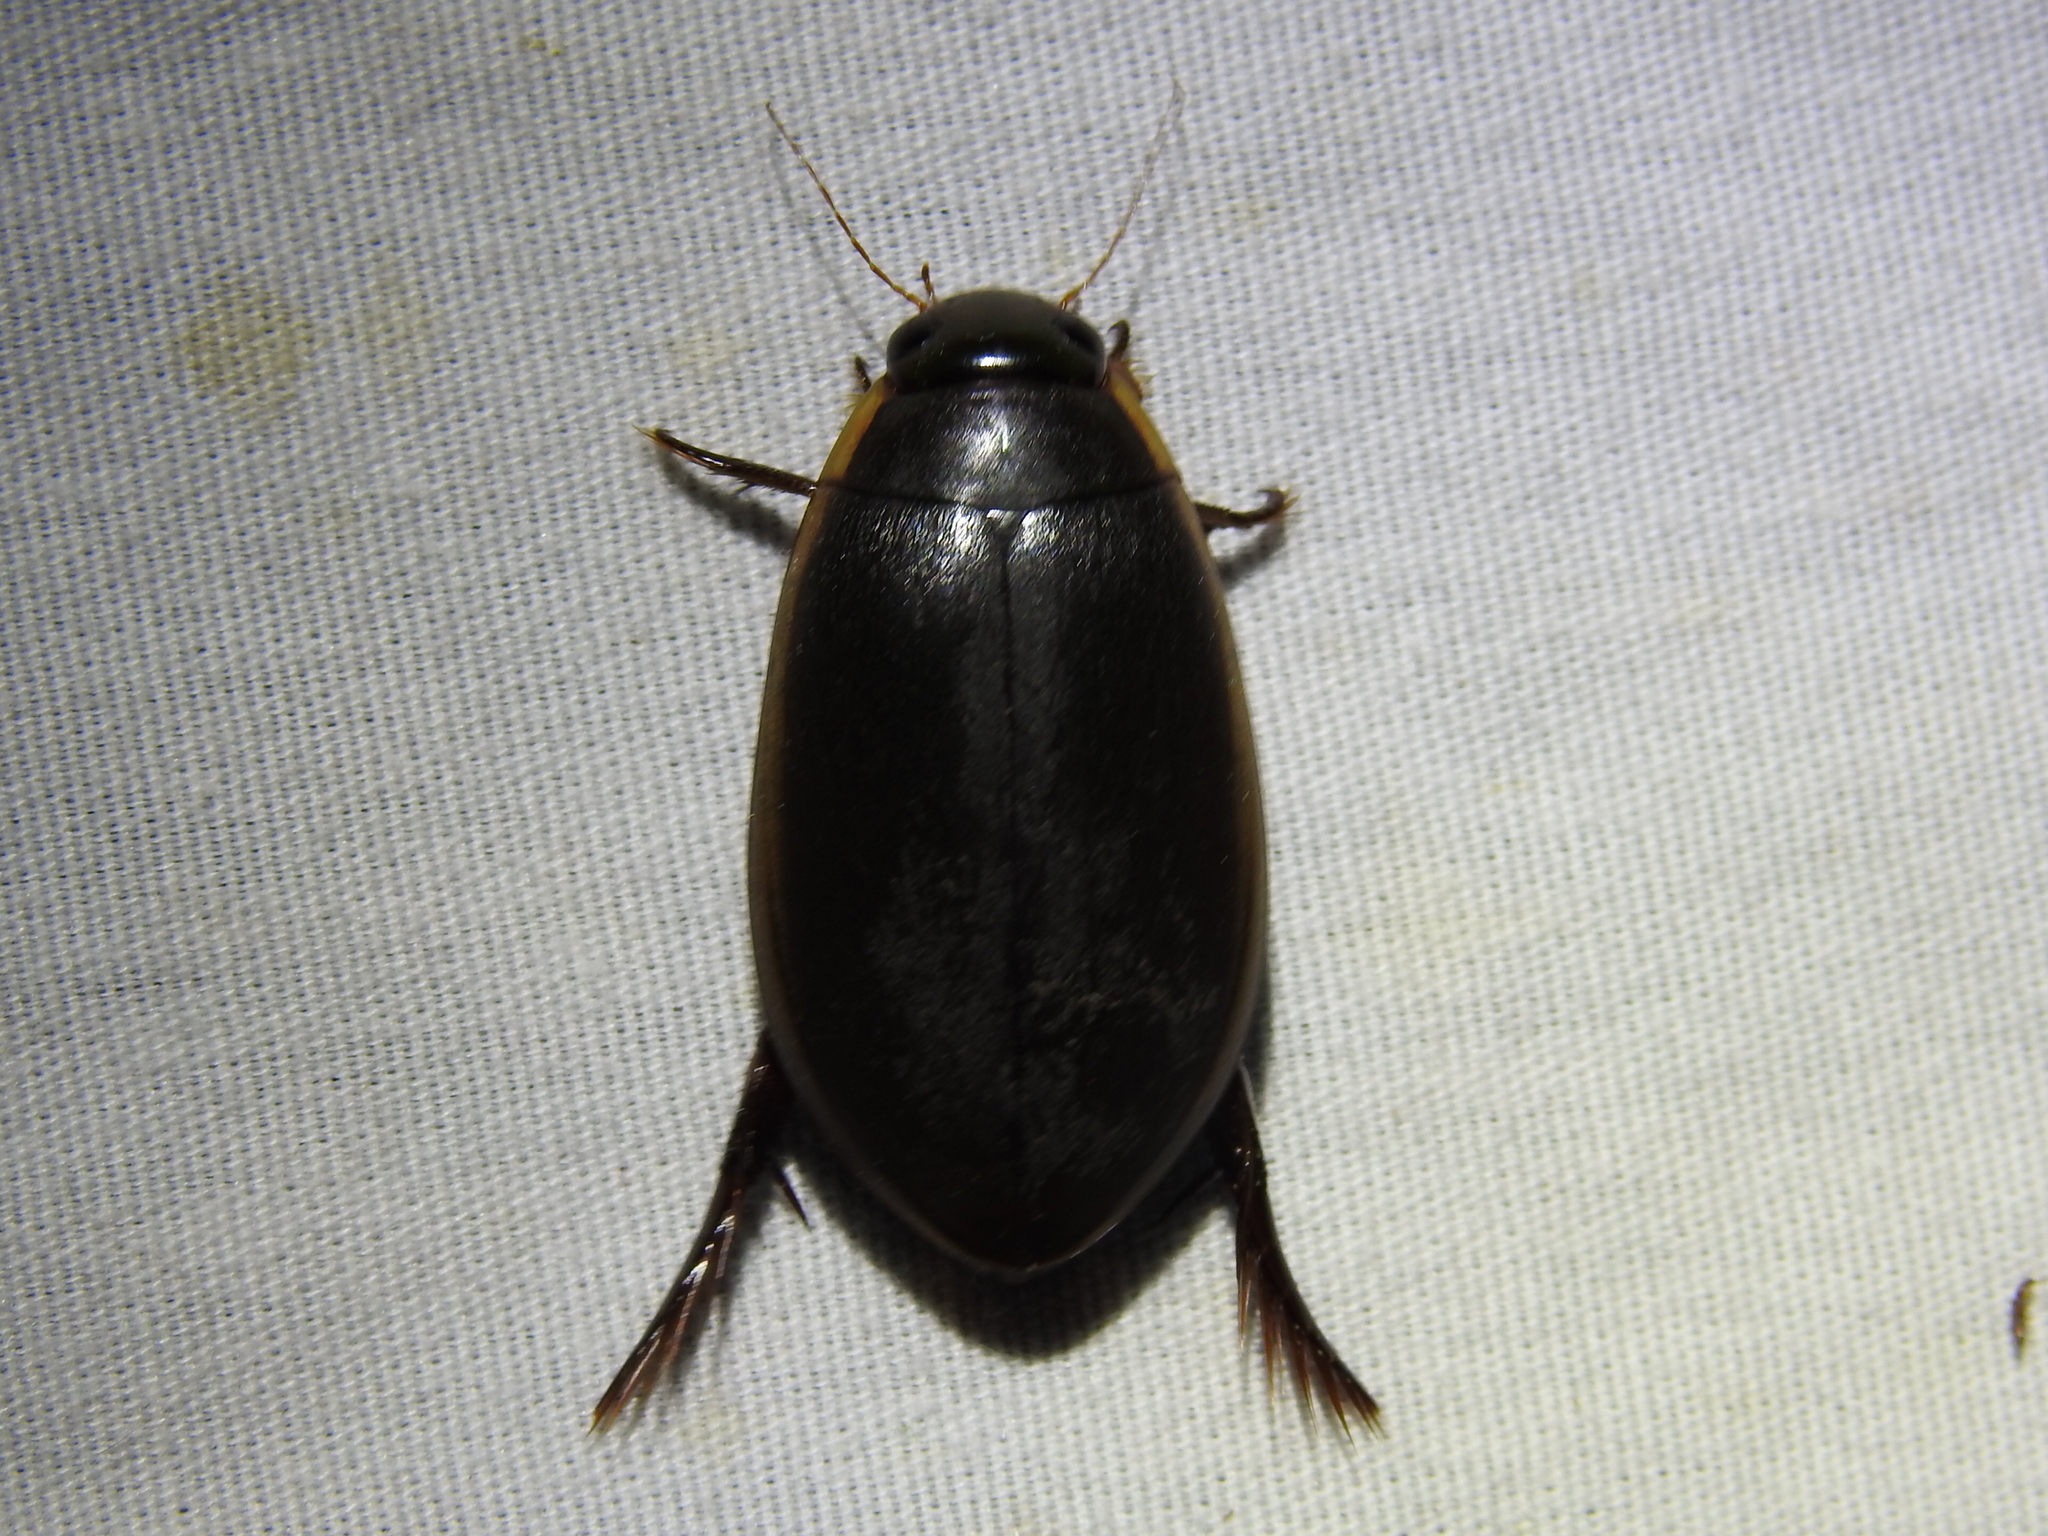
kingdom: Animalia
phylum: Arthropoda
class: Insecta
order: Coleoptera
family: Dytiscidae
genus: Cybister
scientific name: Cybister fimbriolatus
